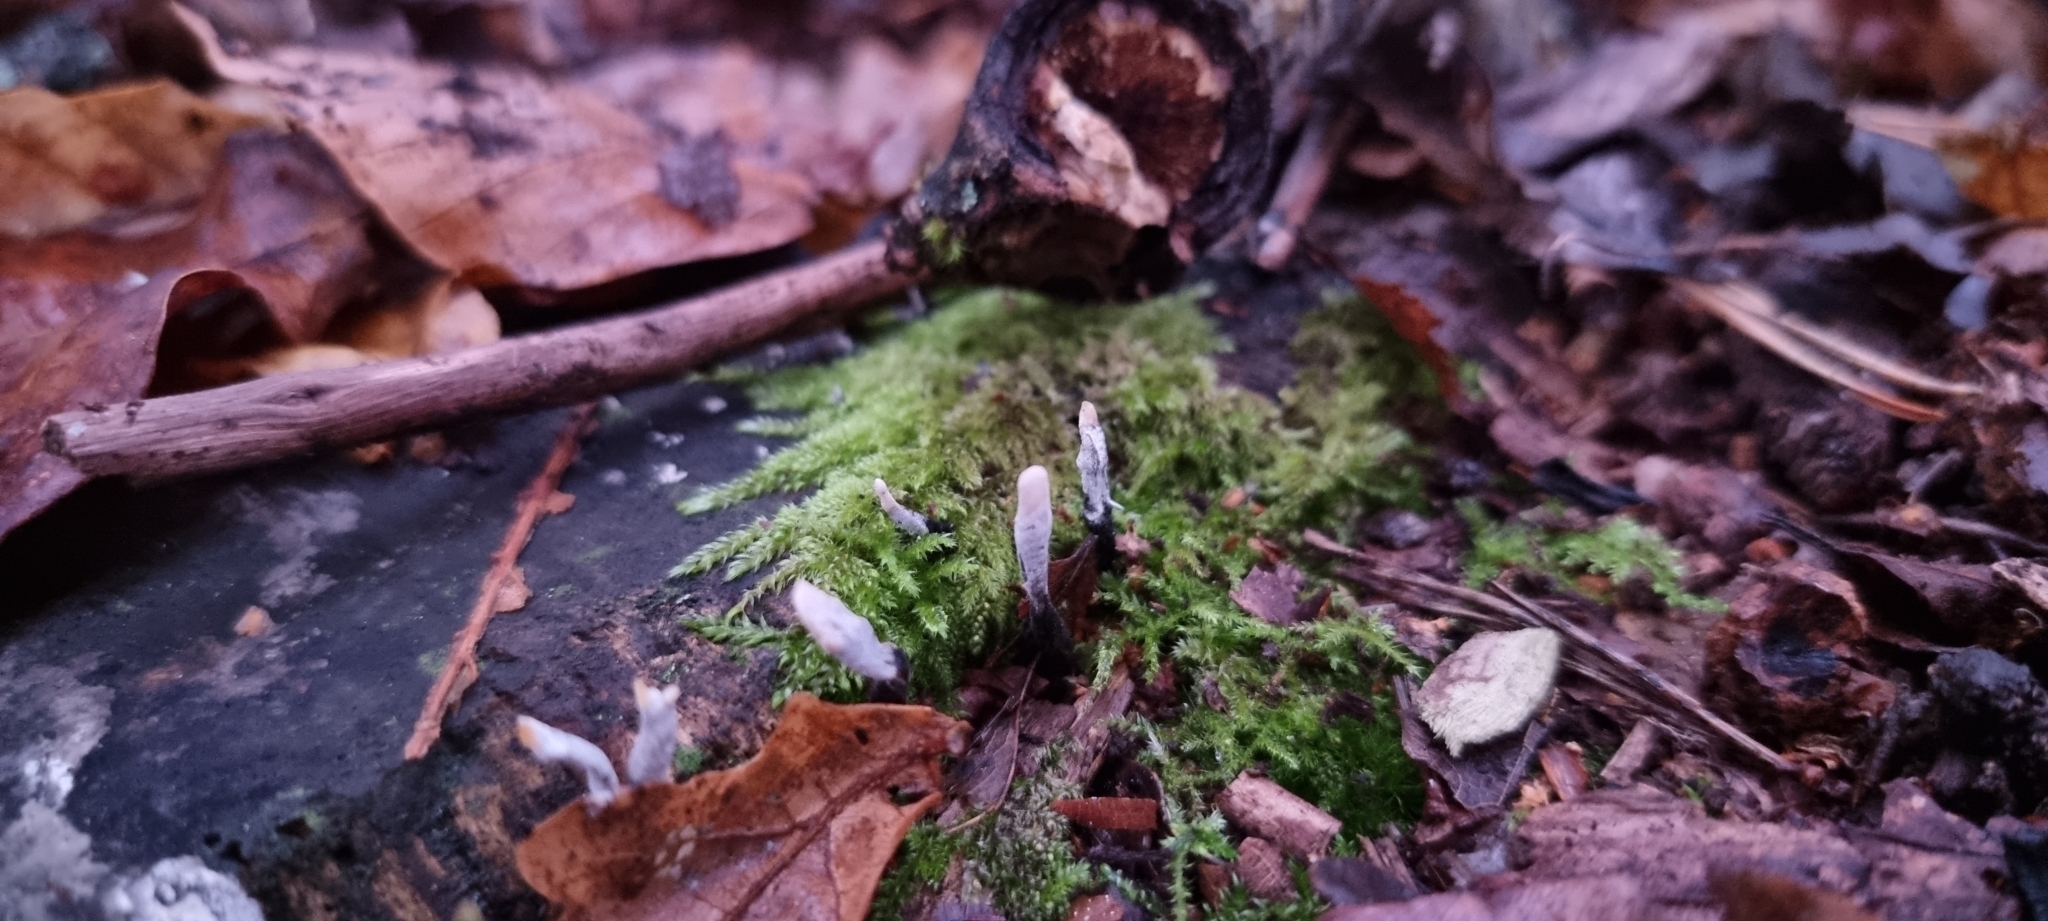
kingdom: Fungi
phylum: Ascomycota
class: Sordariomycetes
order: Xylariales
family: Xylariaceae
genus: Xylaria
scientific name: Xylaria hypoxylon
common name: Candle-snuff fungus
